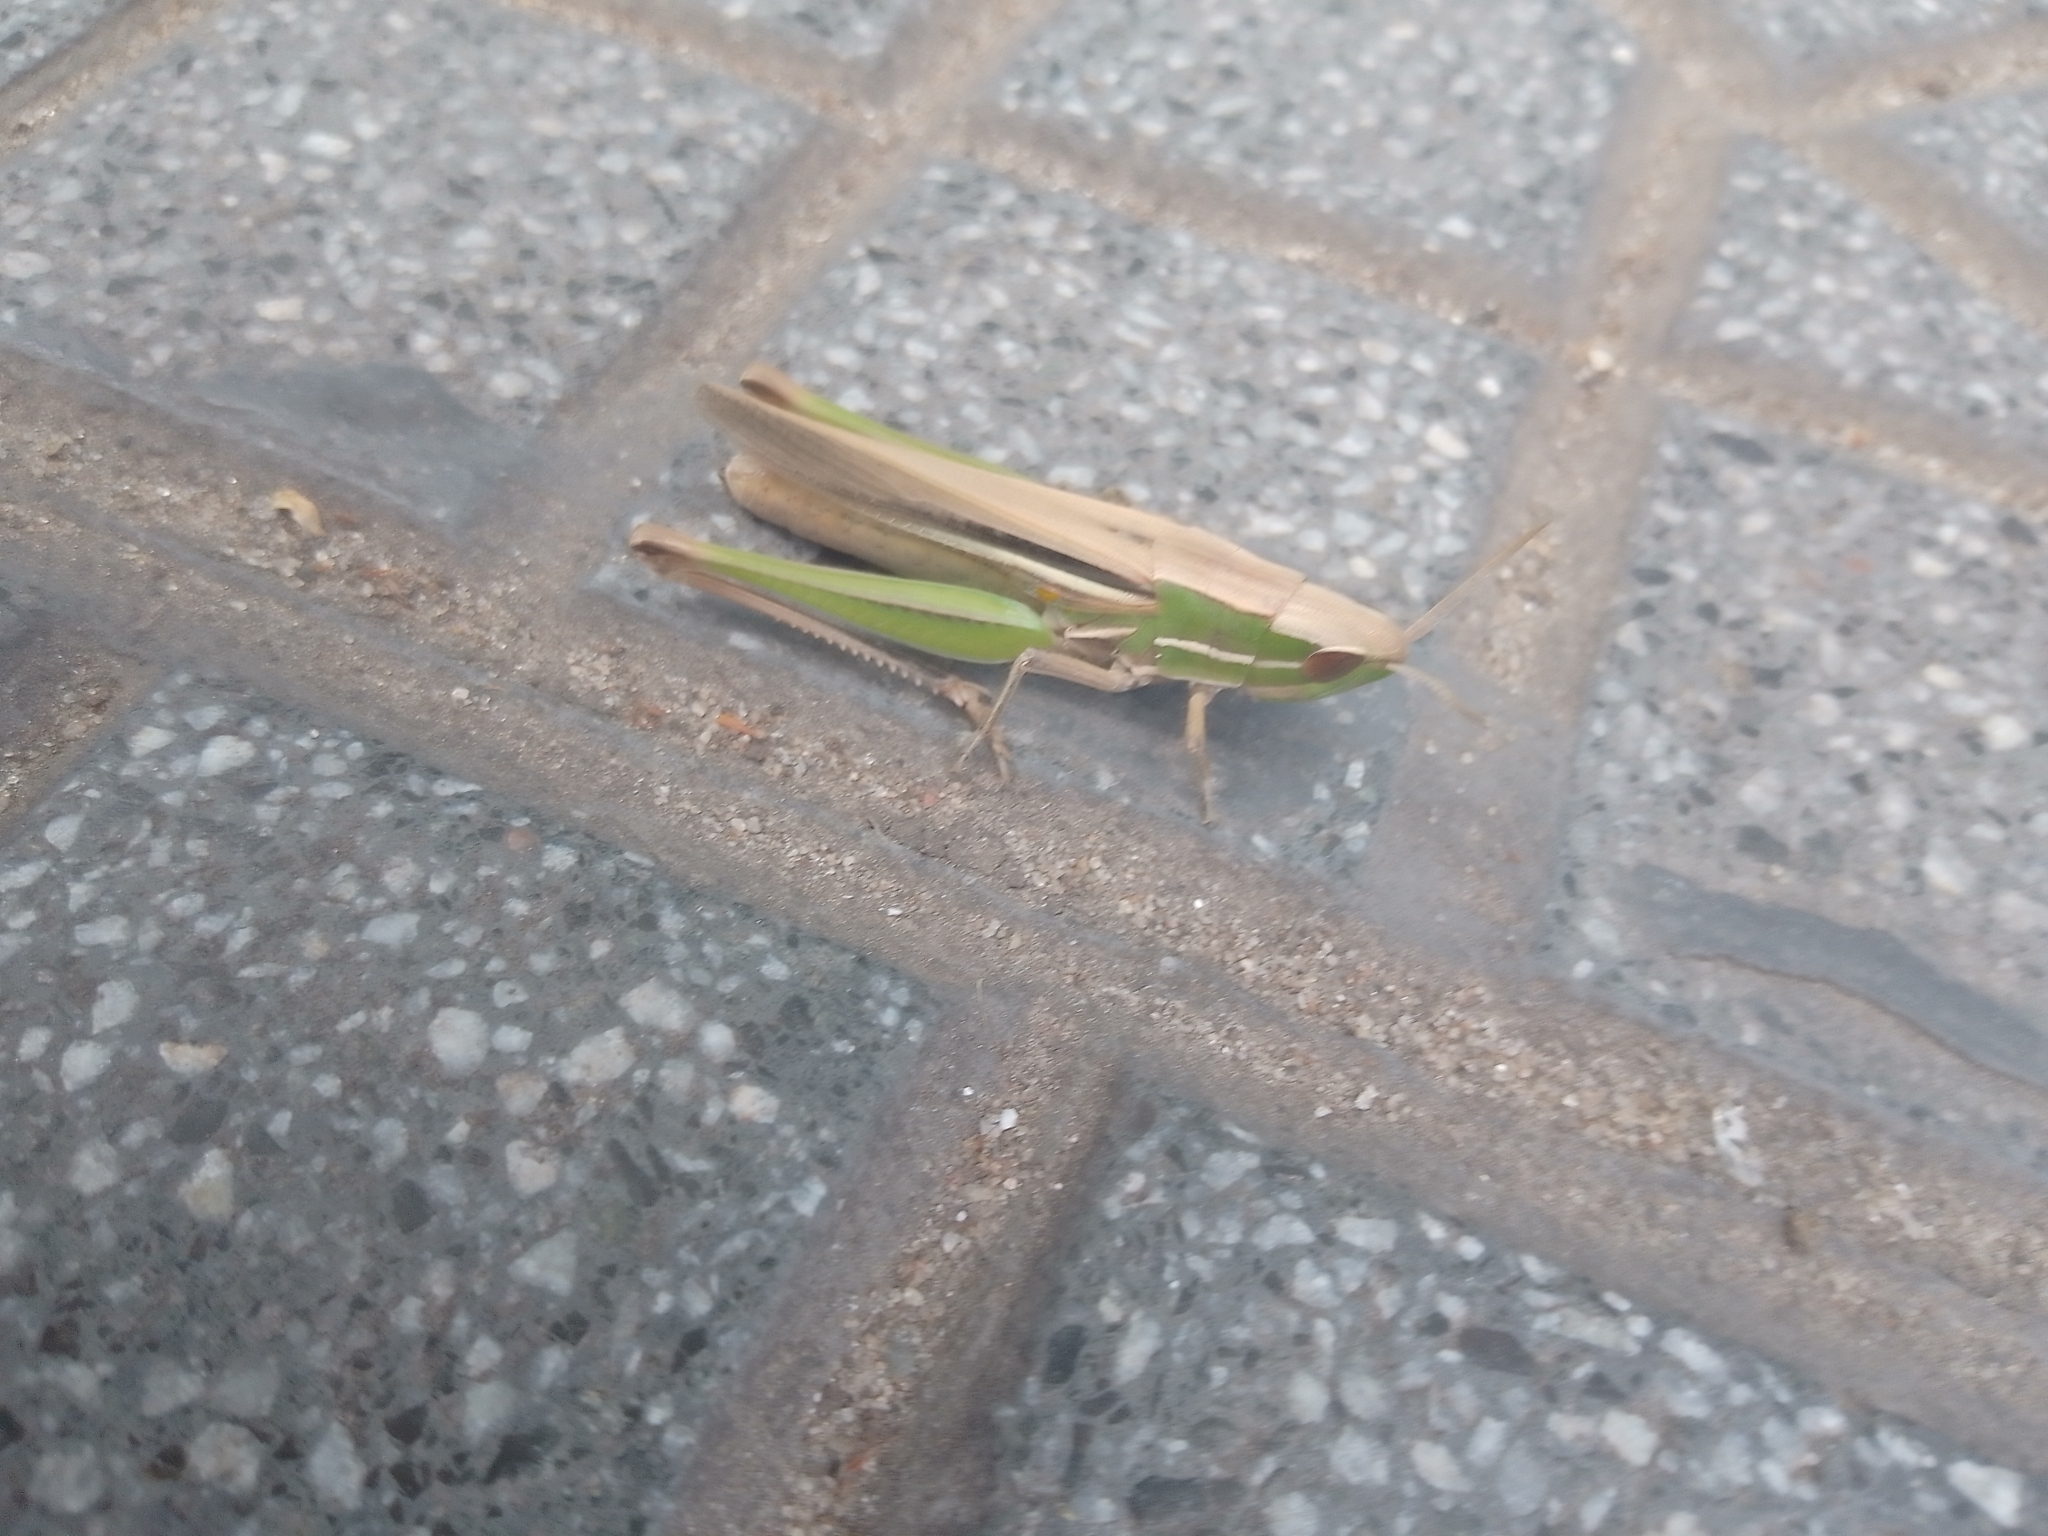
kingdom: Animalia
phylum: Arthropoda
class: Insecta
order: Orthoptera
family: Acrididae
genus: Sinipta
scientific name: Sinipta dalmani
